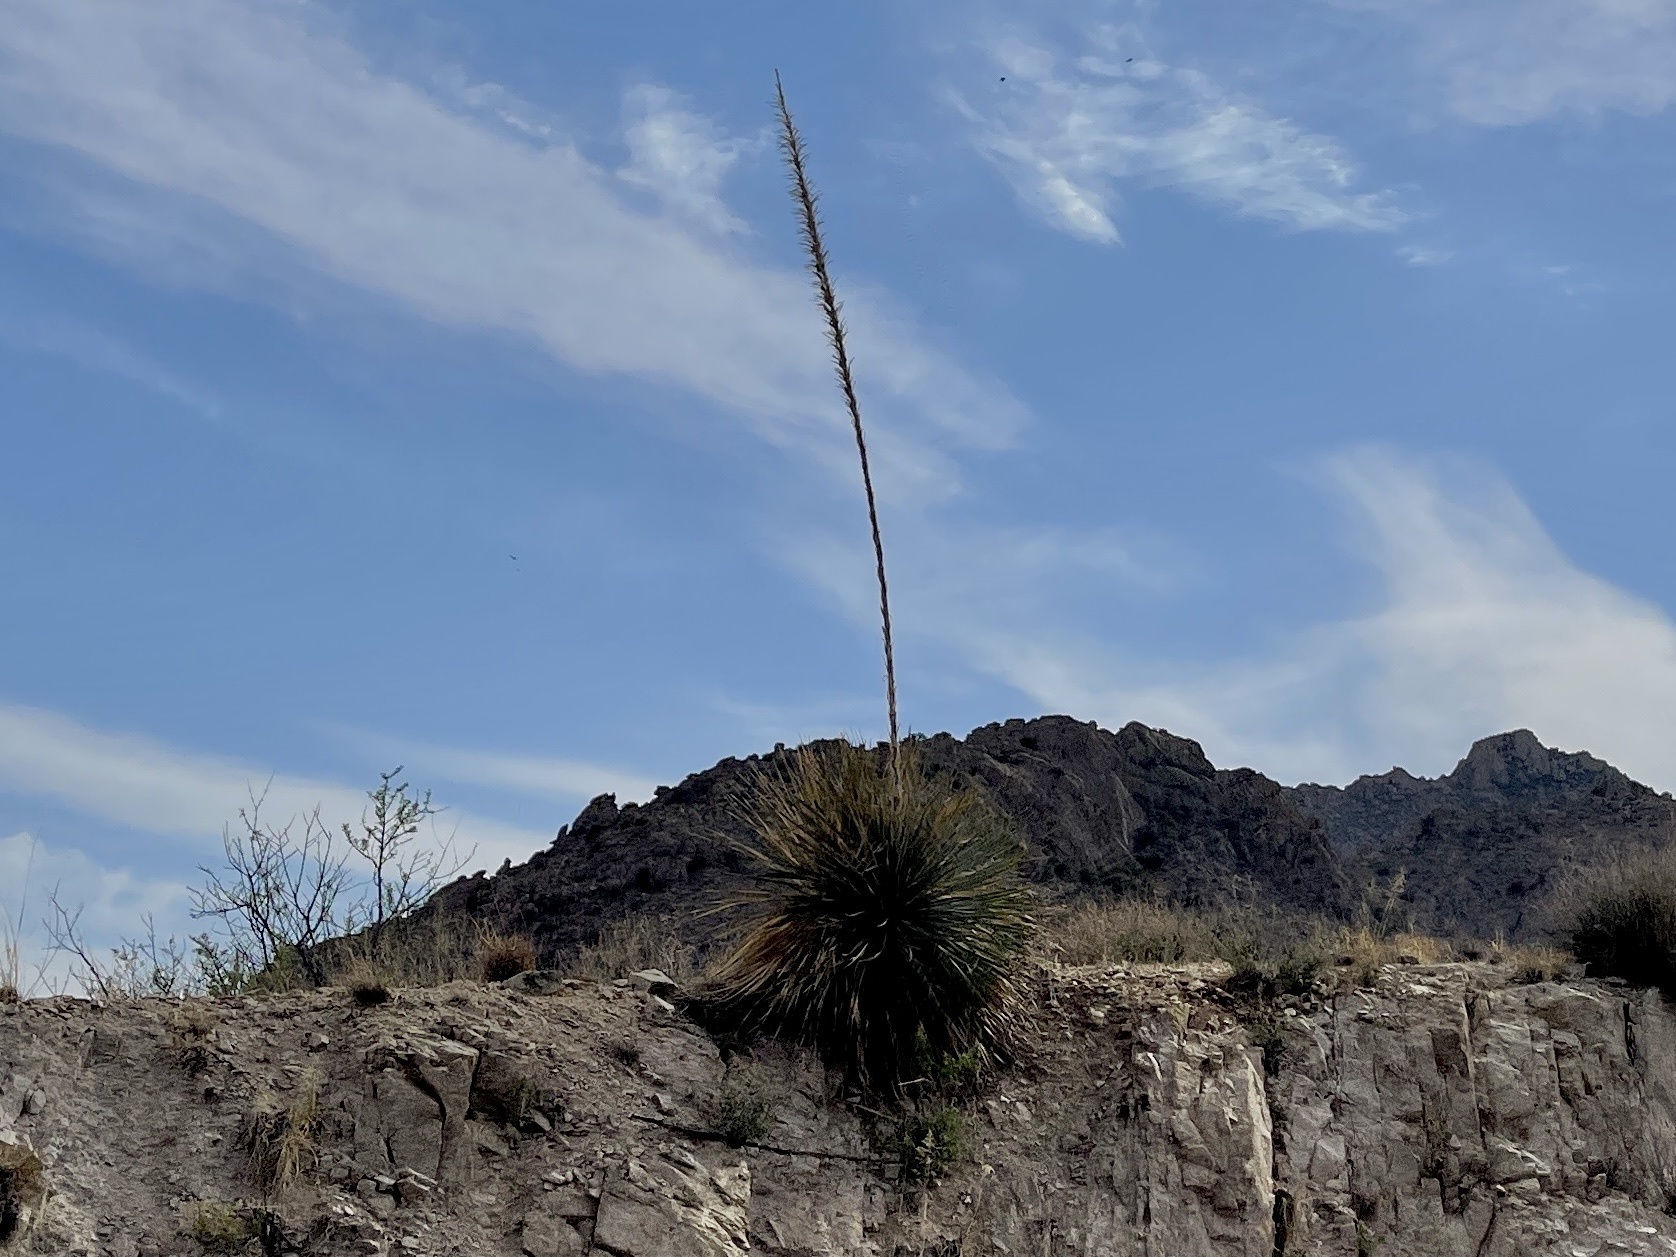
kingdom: Plantae
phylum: Tracheophyta
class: Liliopsida
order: Asparagales
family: Asparagaceae
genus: Dasylirion
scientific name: Dasylirion wheeleri
